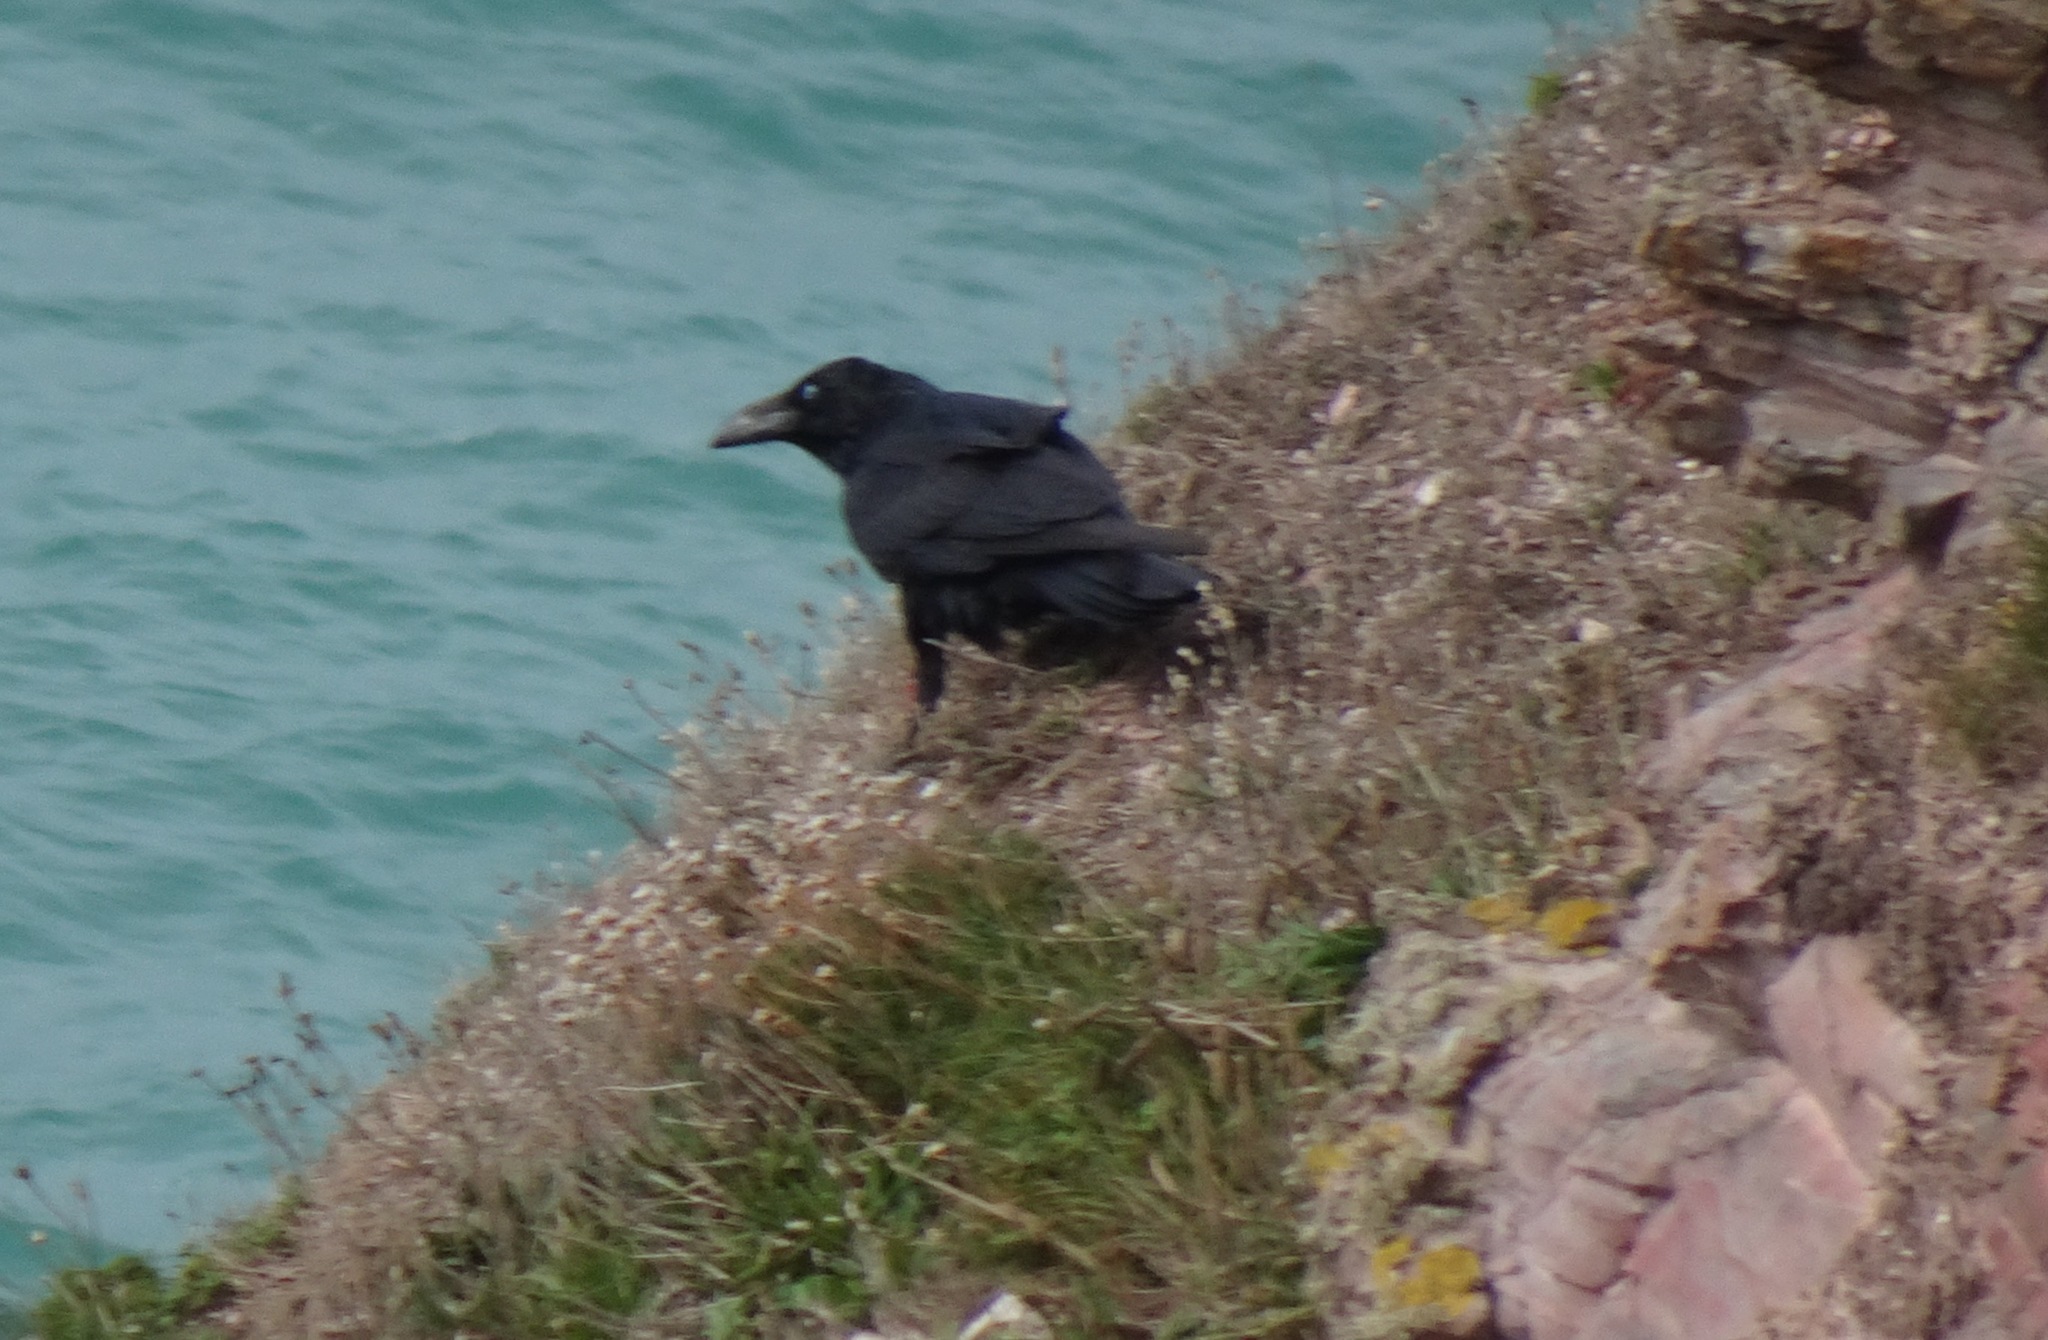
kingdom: Animalia
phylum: Chordata
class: Aves
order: Passeriformes
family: Corvidae
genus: Corvus
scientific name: Corvus corax
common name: Common raven
